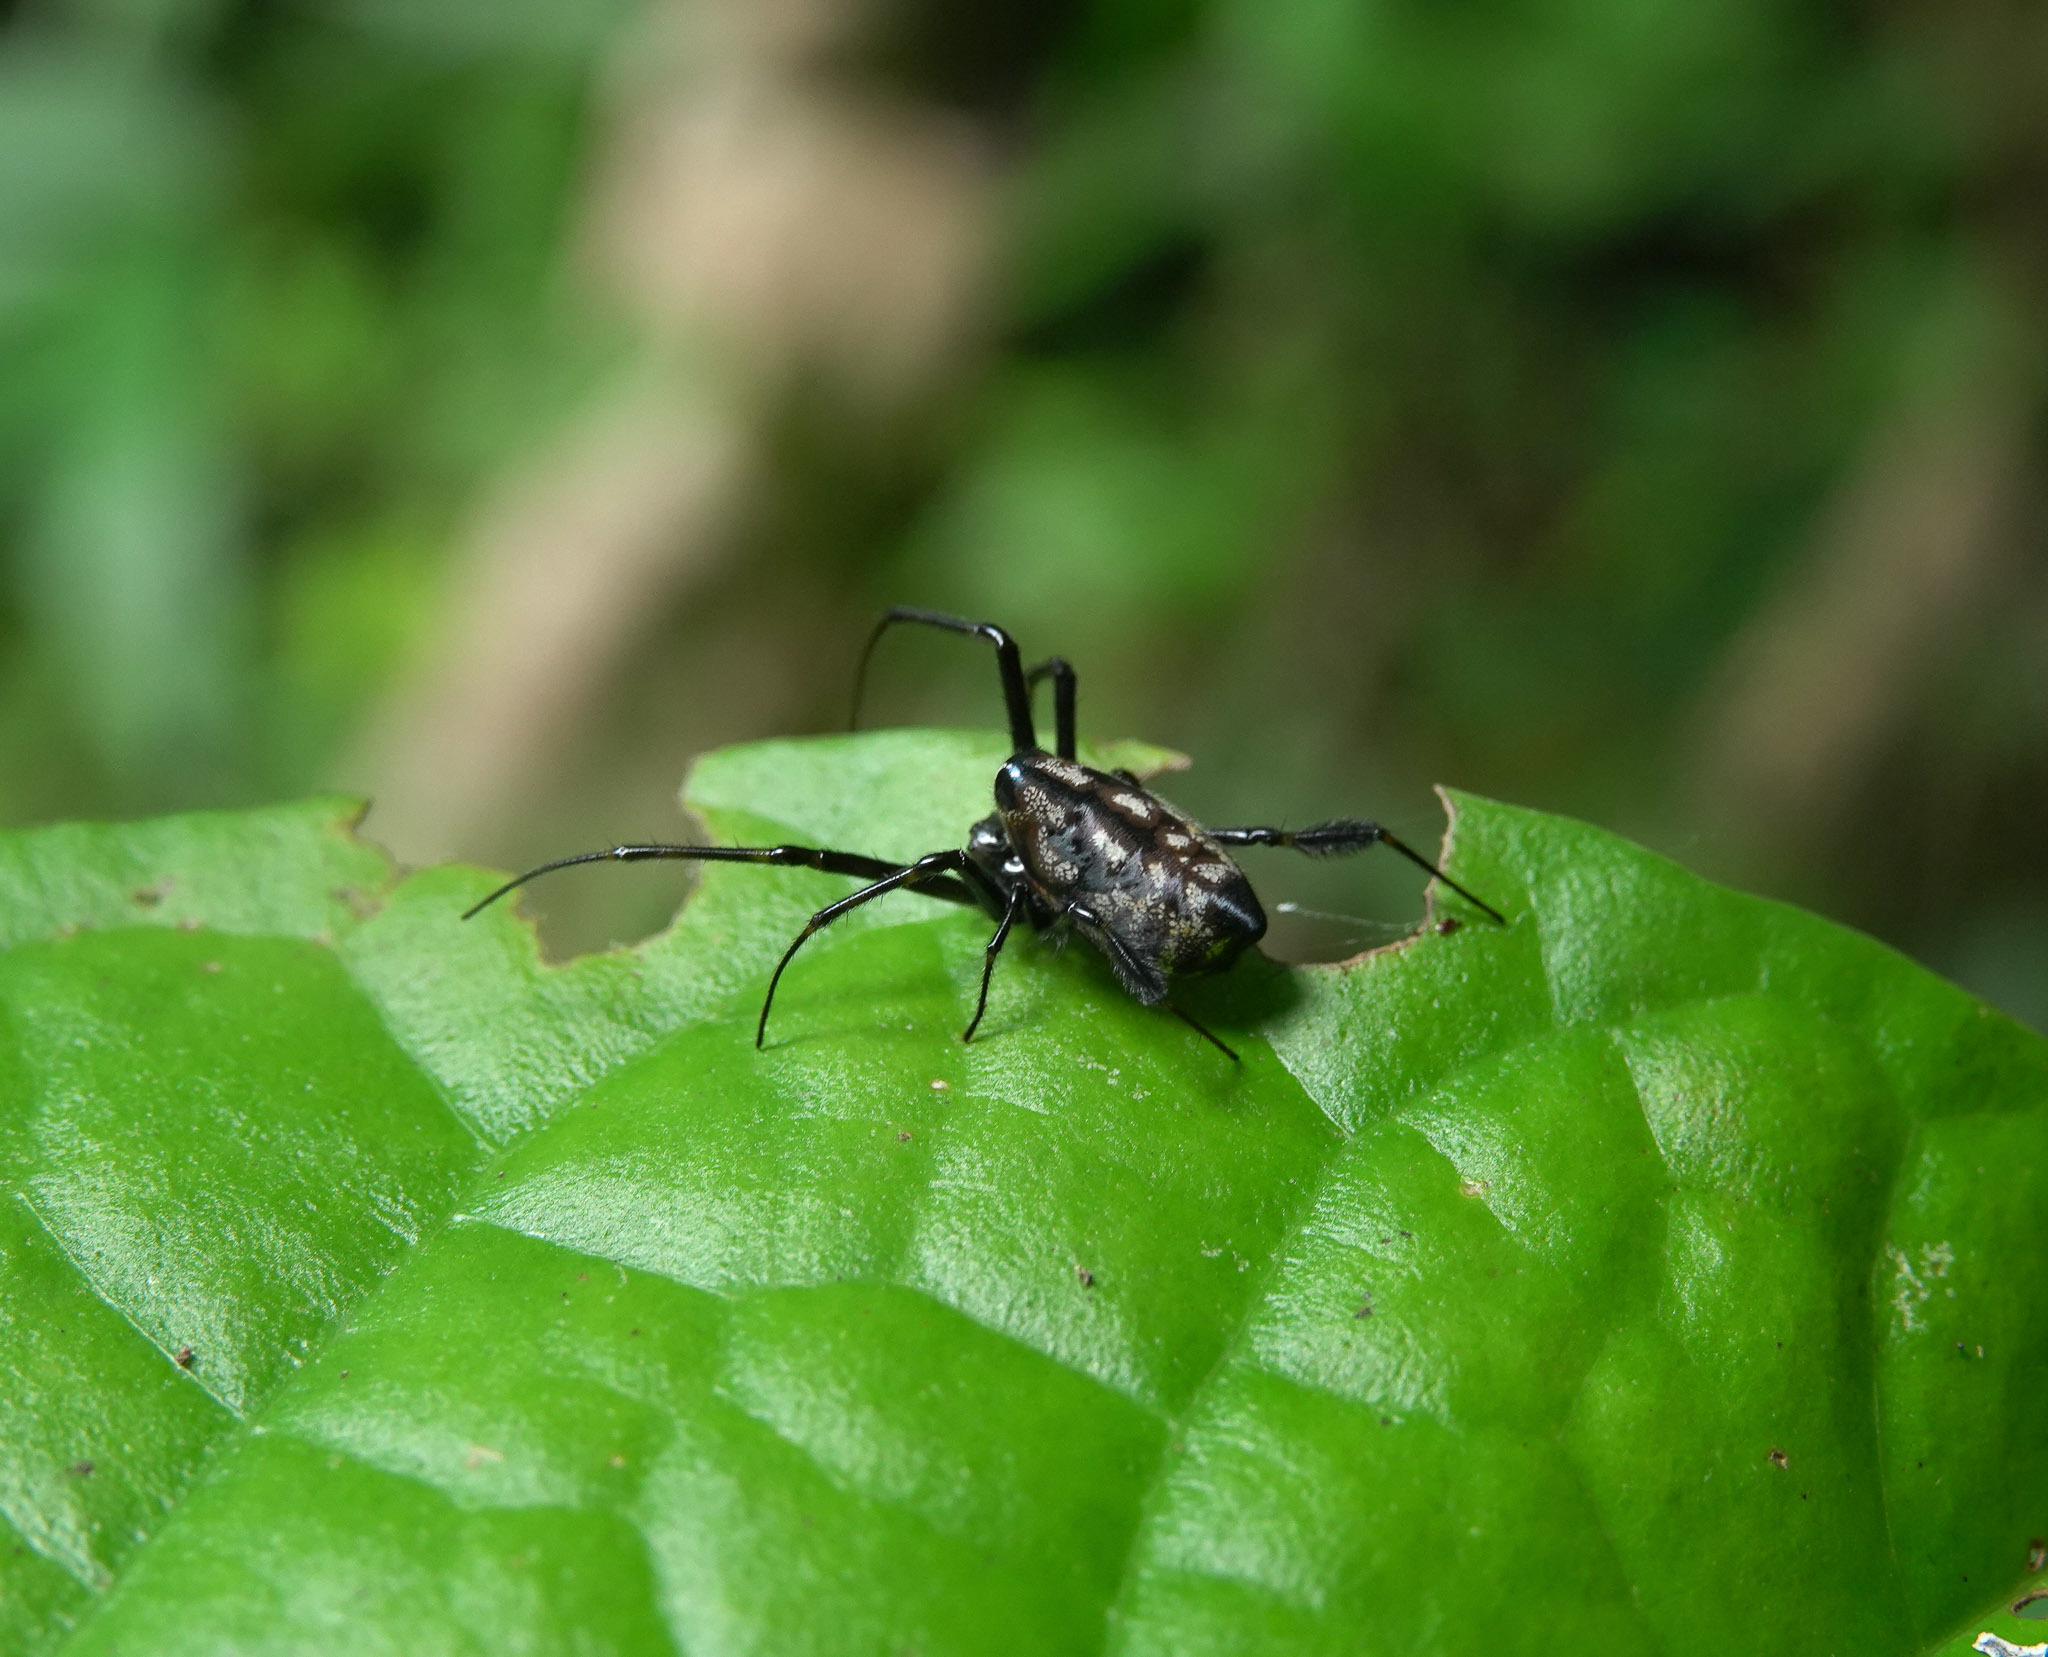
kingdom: Animalia
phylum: Arthropoda
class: Arachnida
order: Araneae
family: Tetragnathidae
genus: Leucauge
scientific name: Leucauge fastigata
